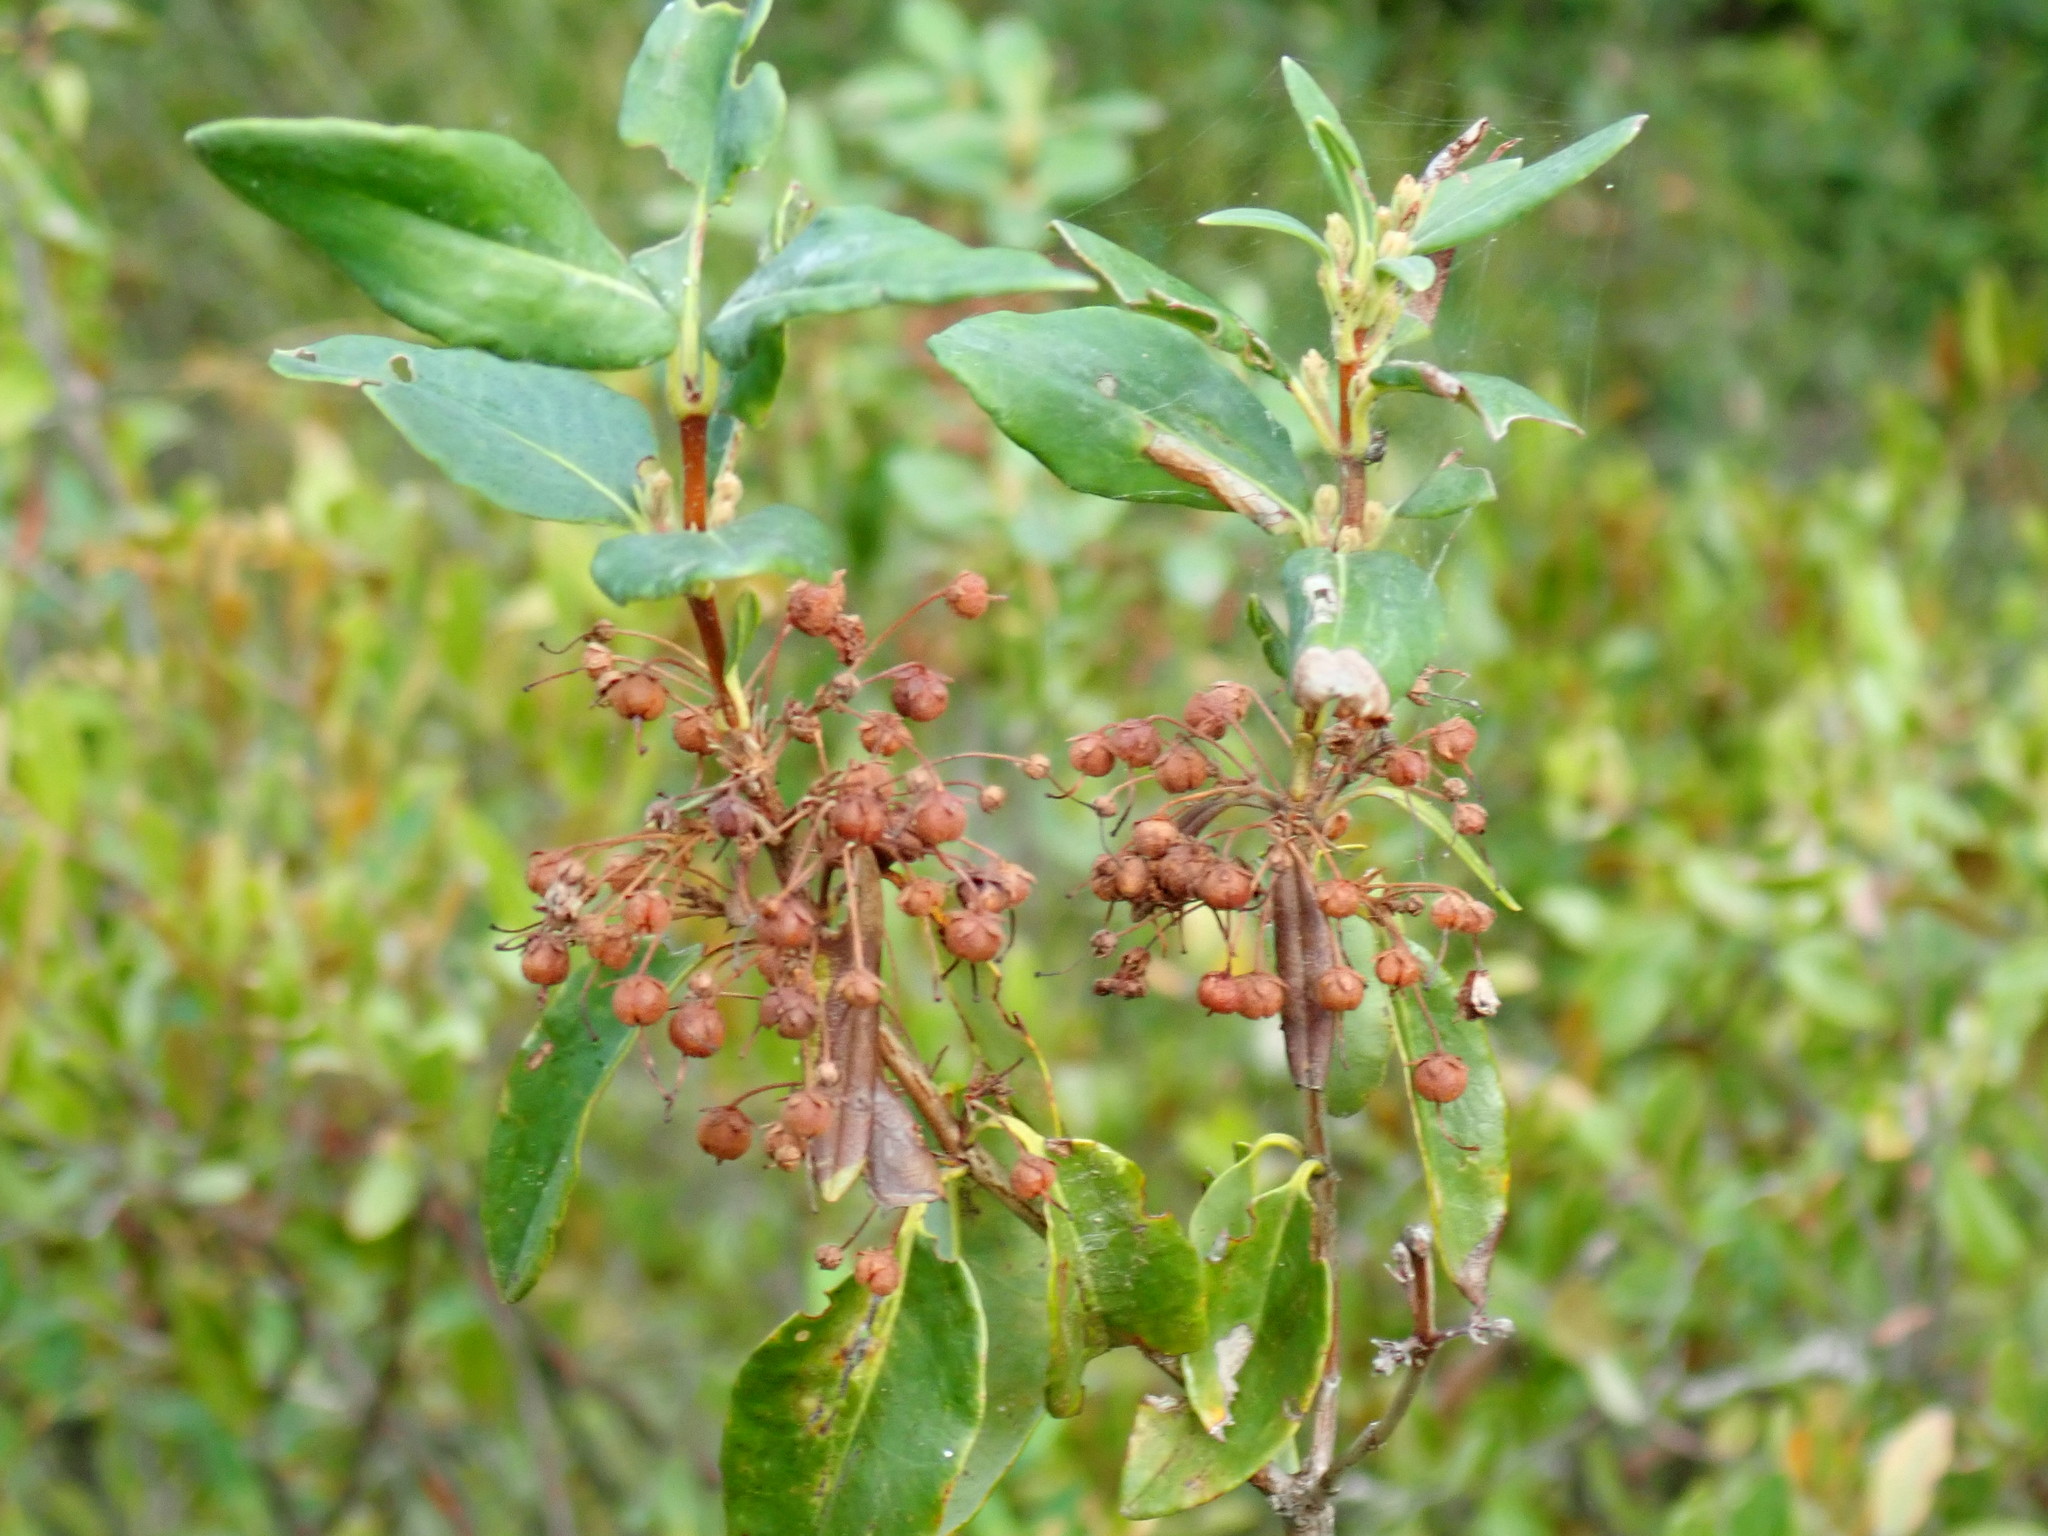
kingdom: Plantae
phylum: Tracheophyta
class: Magnoliopsida
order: Ericales
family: Ericaceae
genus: Kalmia
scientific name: Kalmia angustifolia
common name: Sheep-laurel
